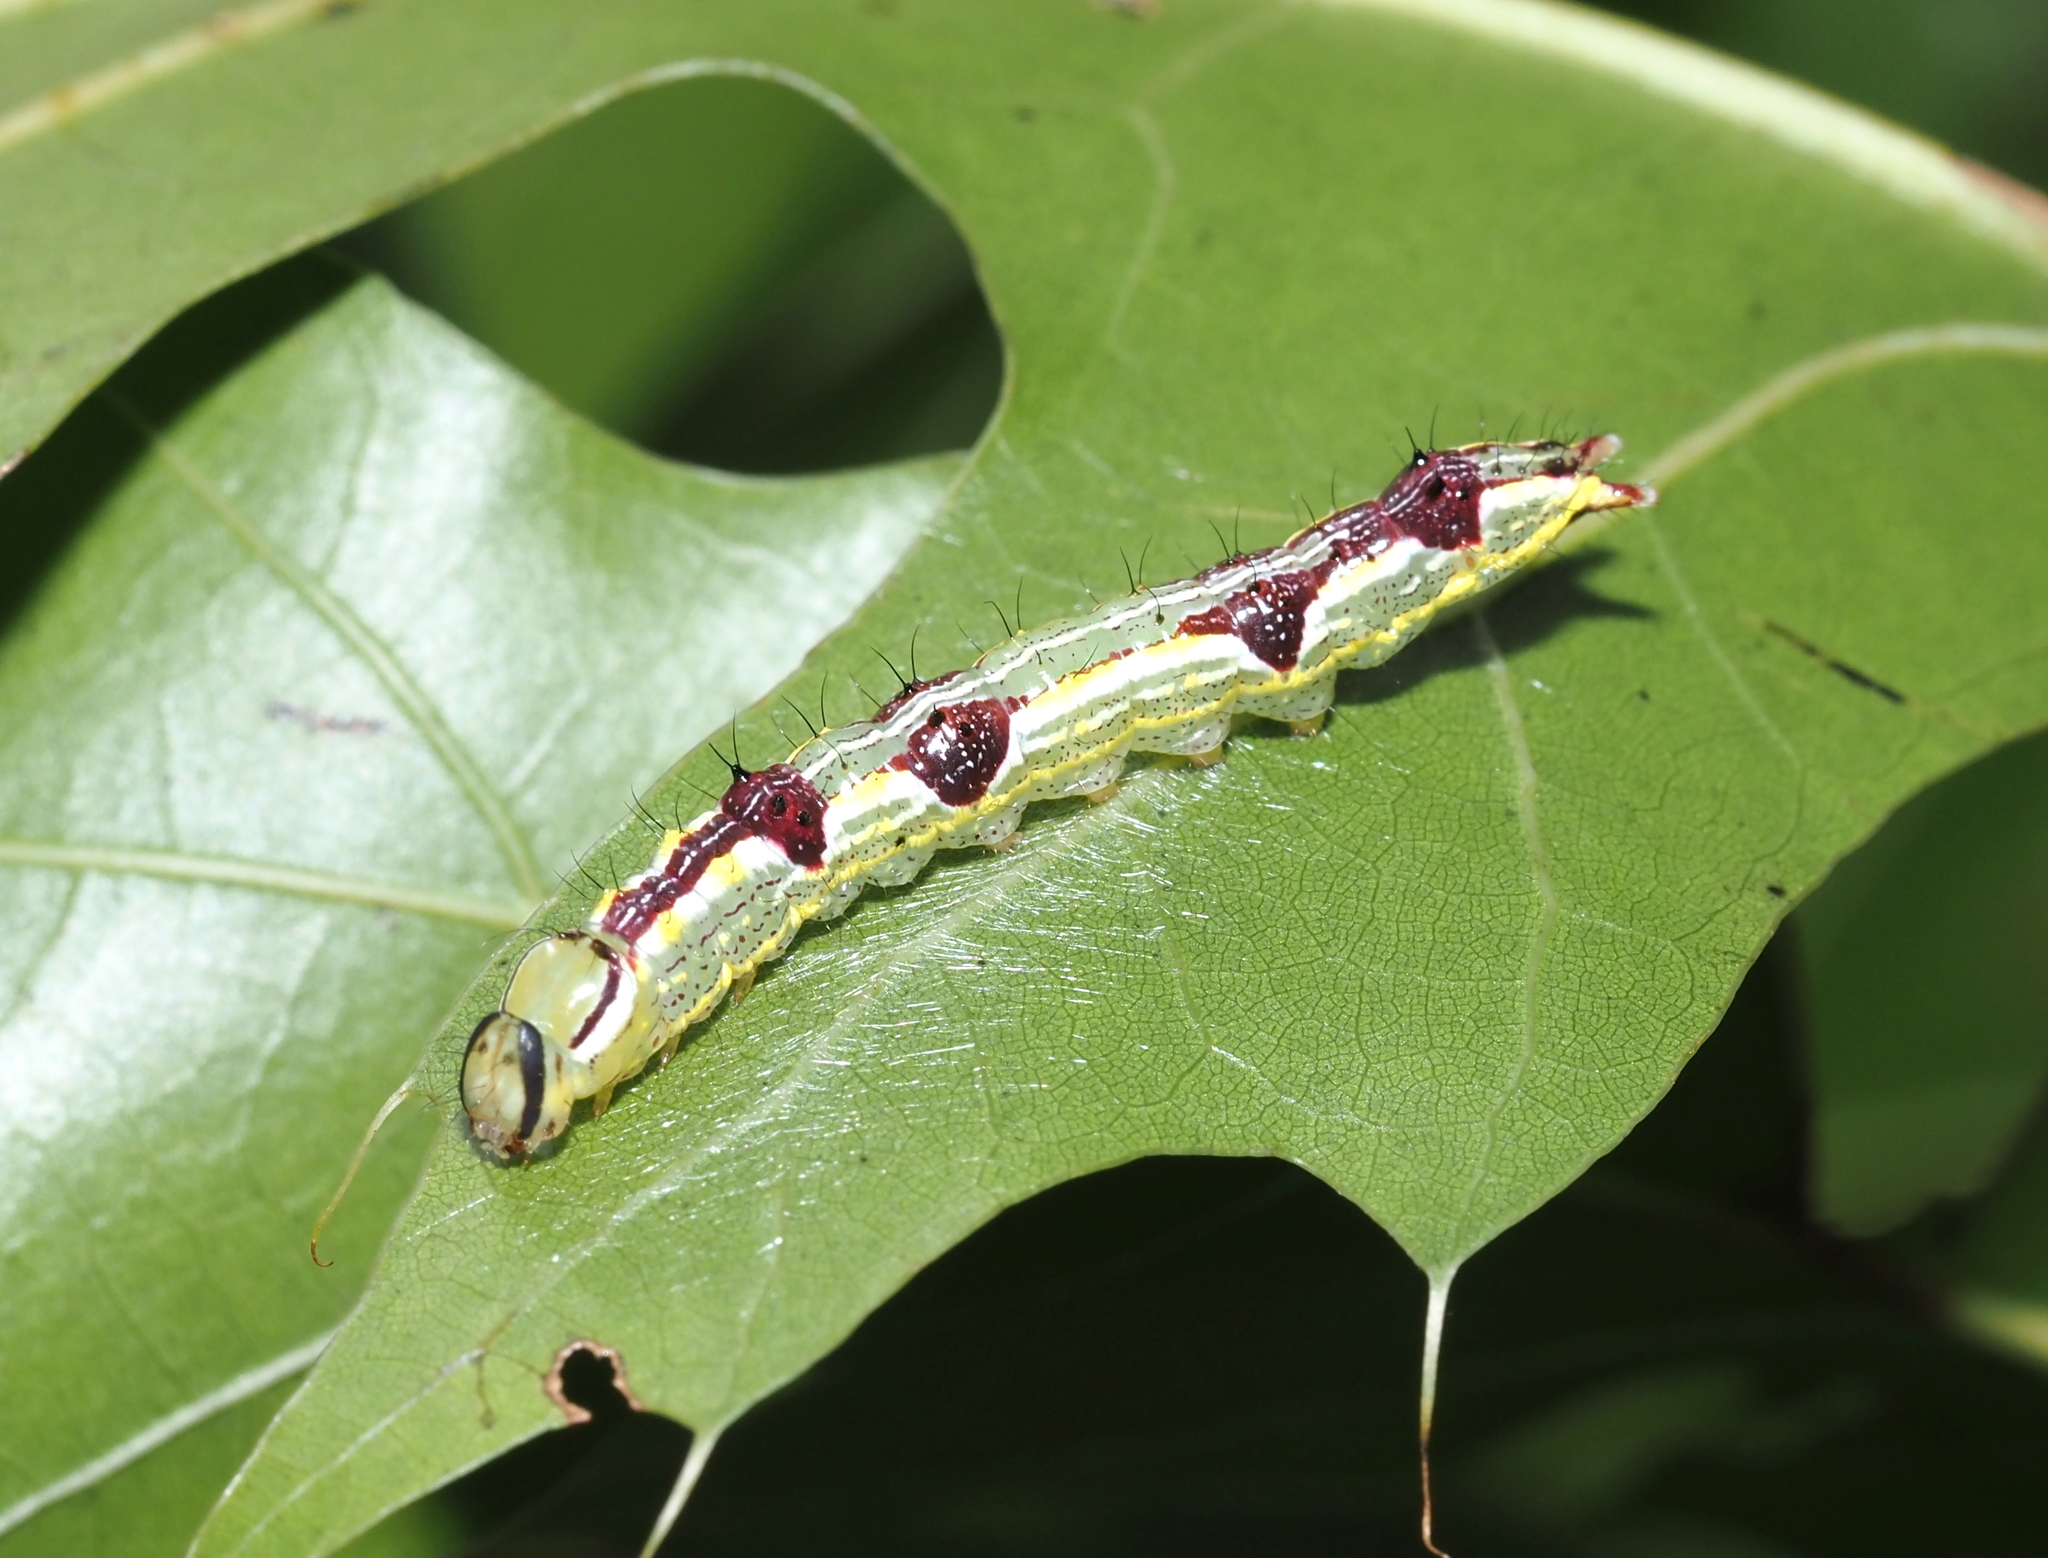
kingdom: Animalia
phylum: Arthropoda
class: Insecta
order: Lepidoptera
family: Notodontidae
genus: Lochmaeus
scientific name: Lochmaeus manteo
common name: Variable oakleaf caterpillar moth
